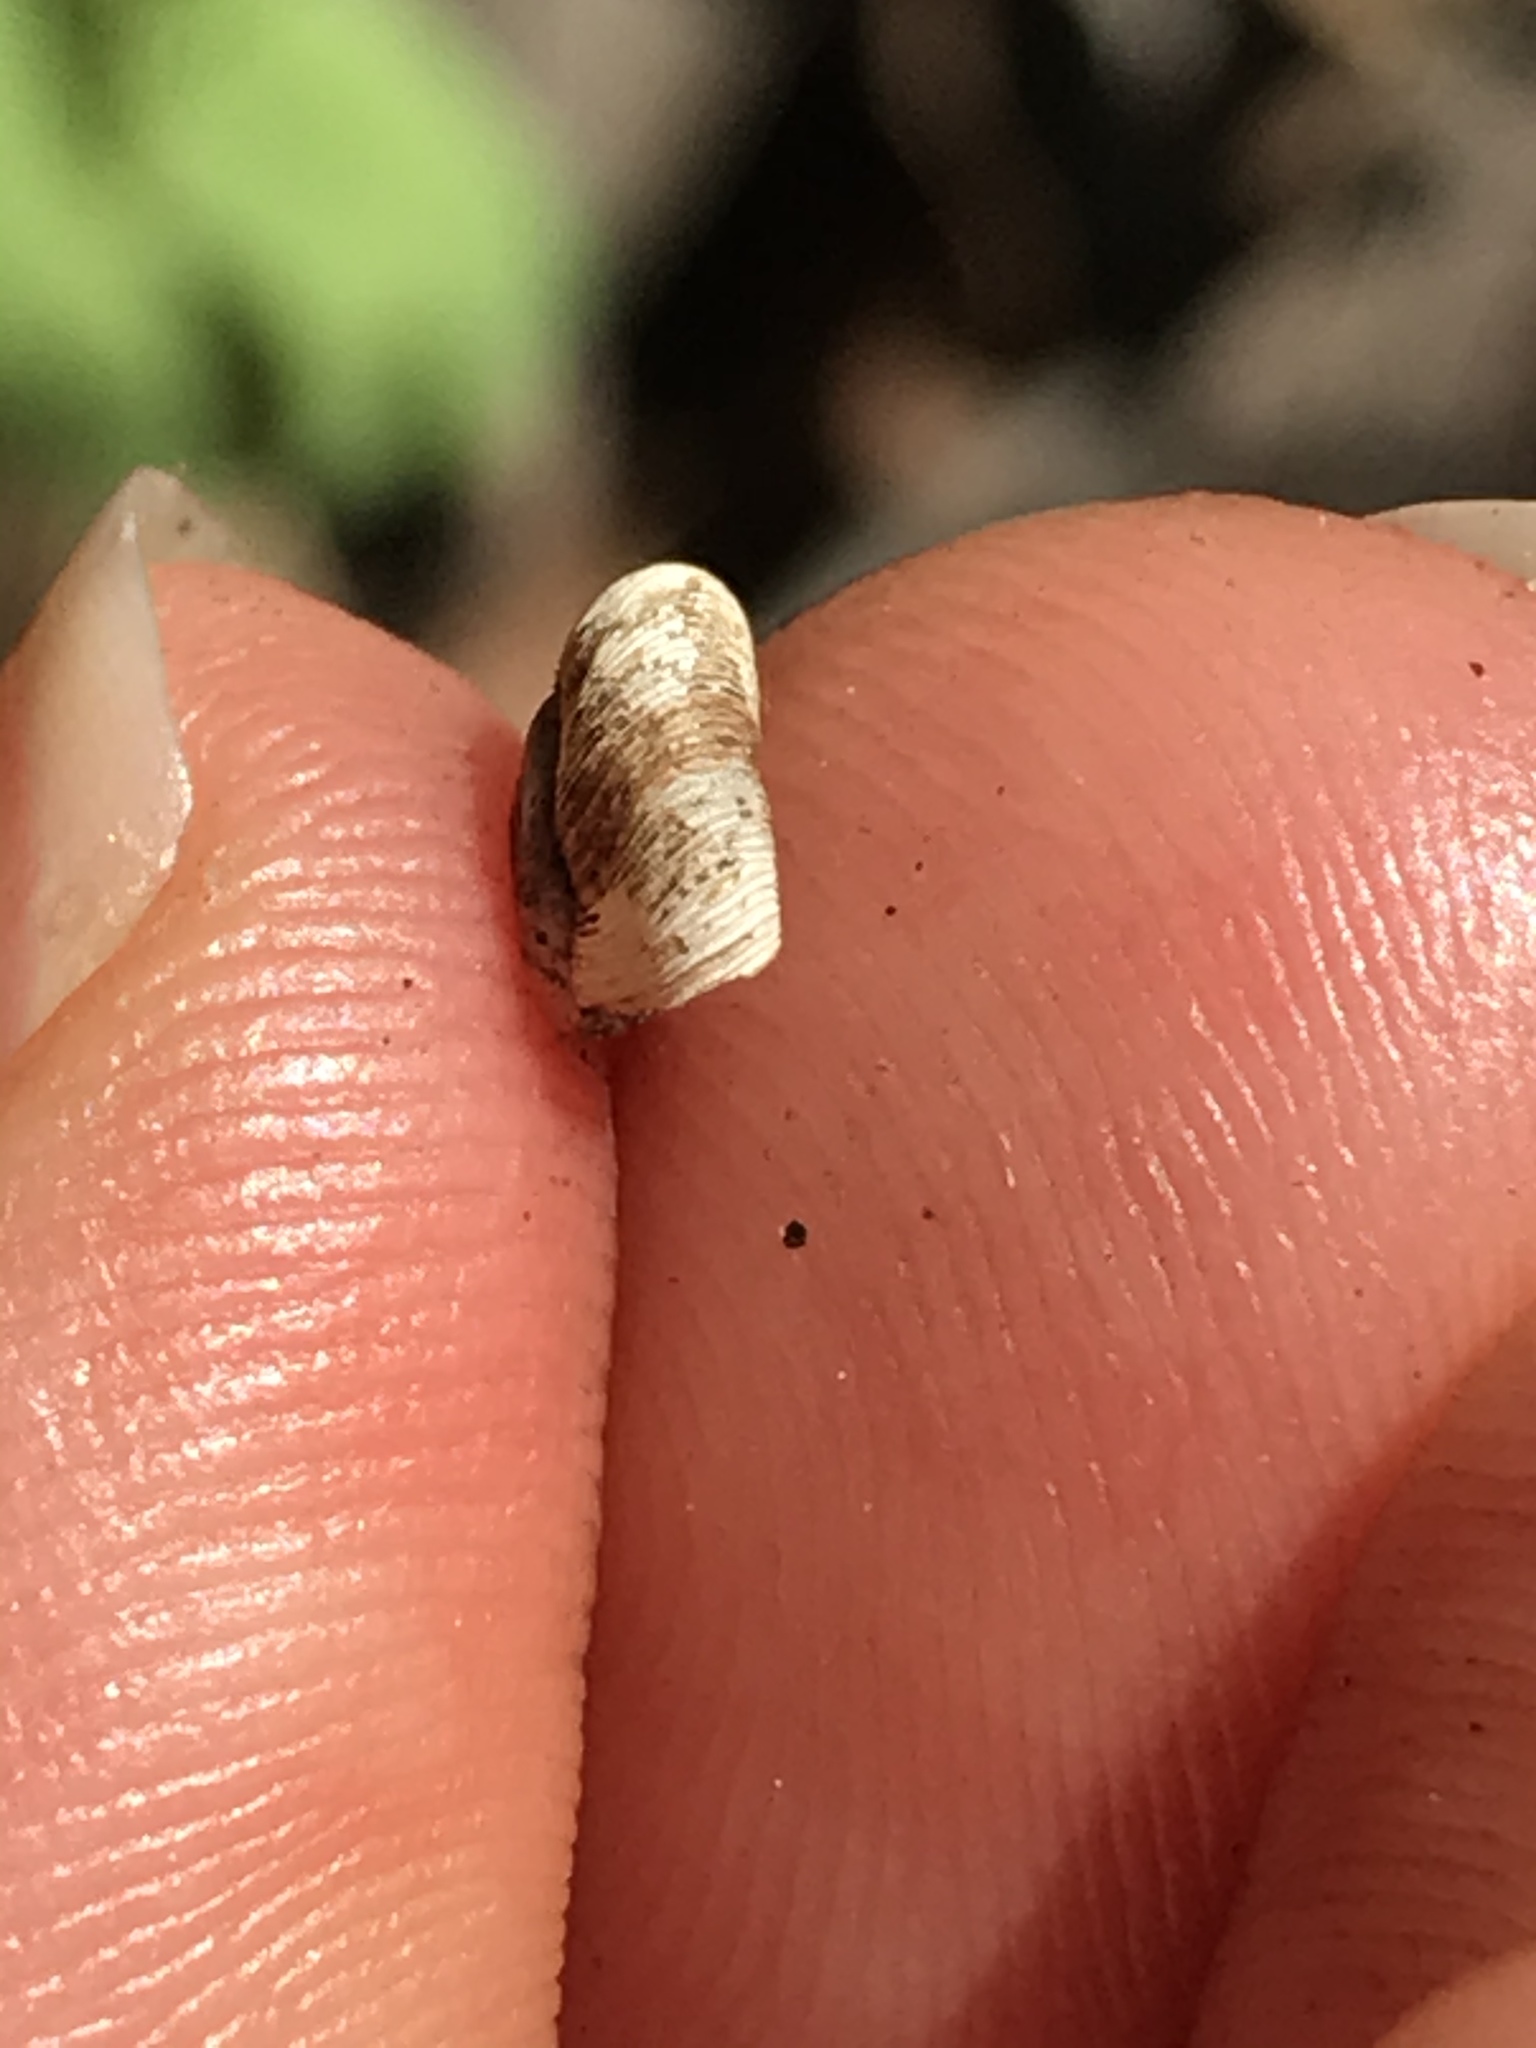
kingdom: Animalia
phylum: Mollusca
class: Gastropoda
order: Stylommatophora
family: Haplotrematidae
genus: Haplotrema
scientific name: Haplotrema caelatum
